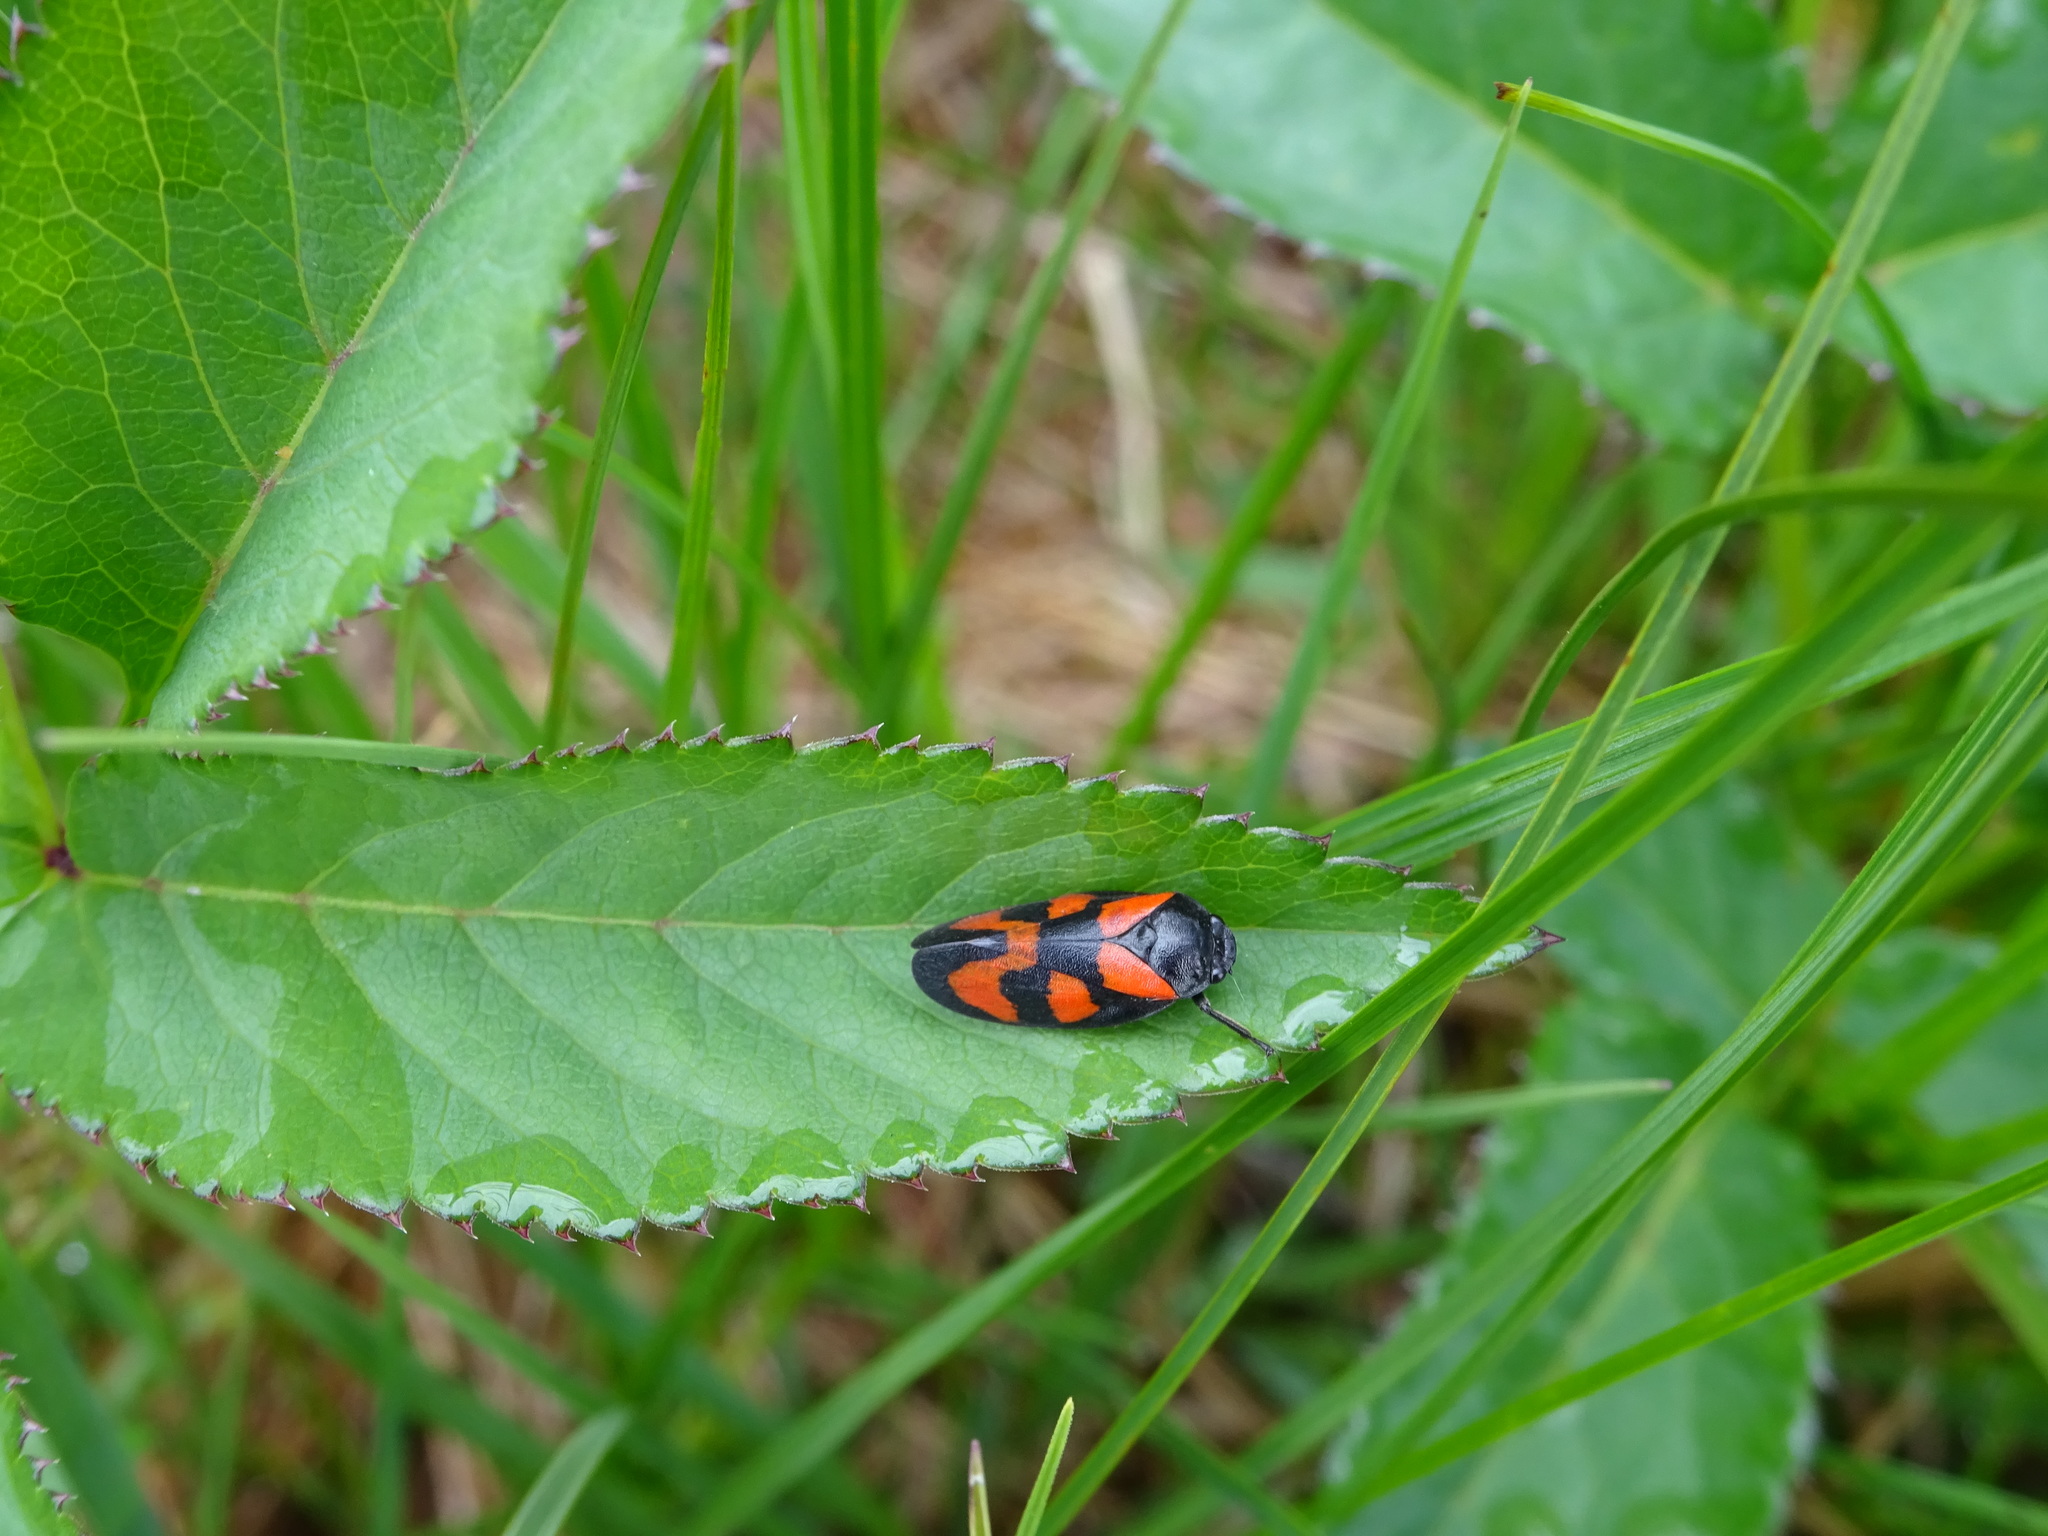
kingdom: Animalia
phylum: Arthropoda
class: Insecta
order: Hemiptera
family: Cercopidae
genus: Cercopis
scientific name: Cercopis vulnerata
